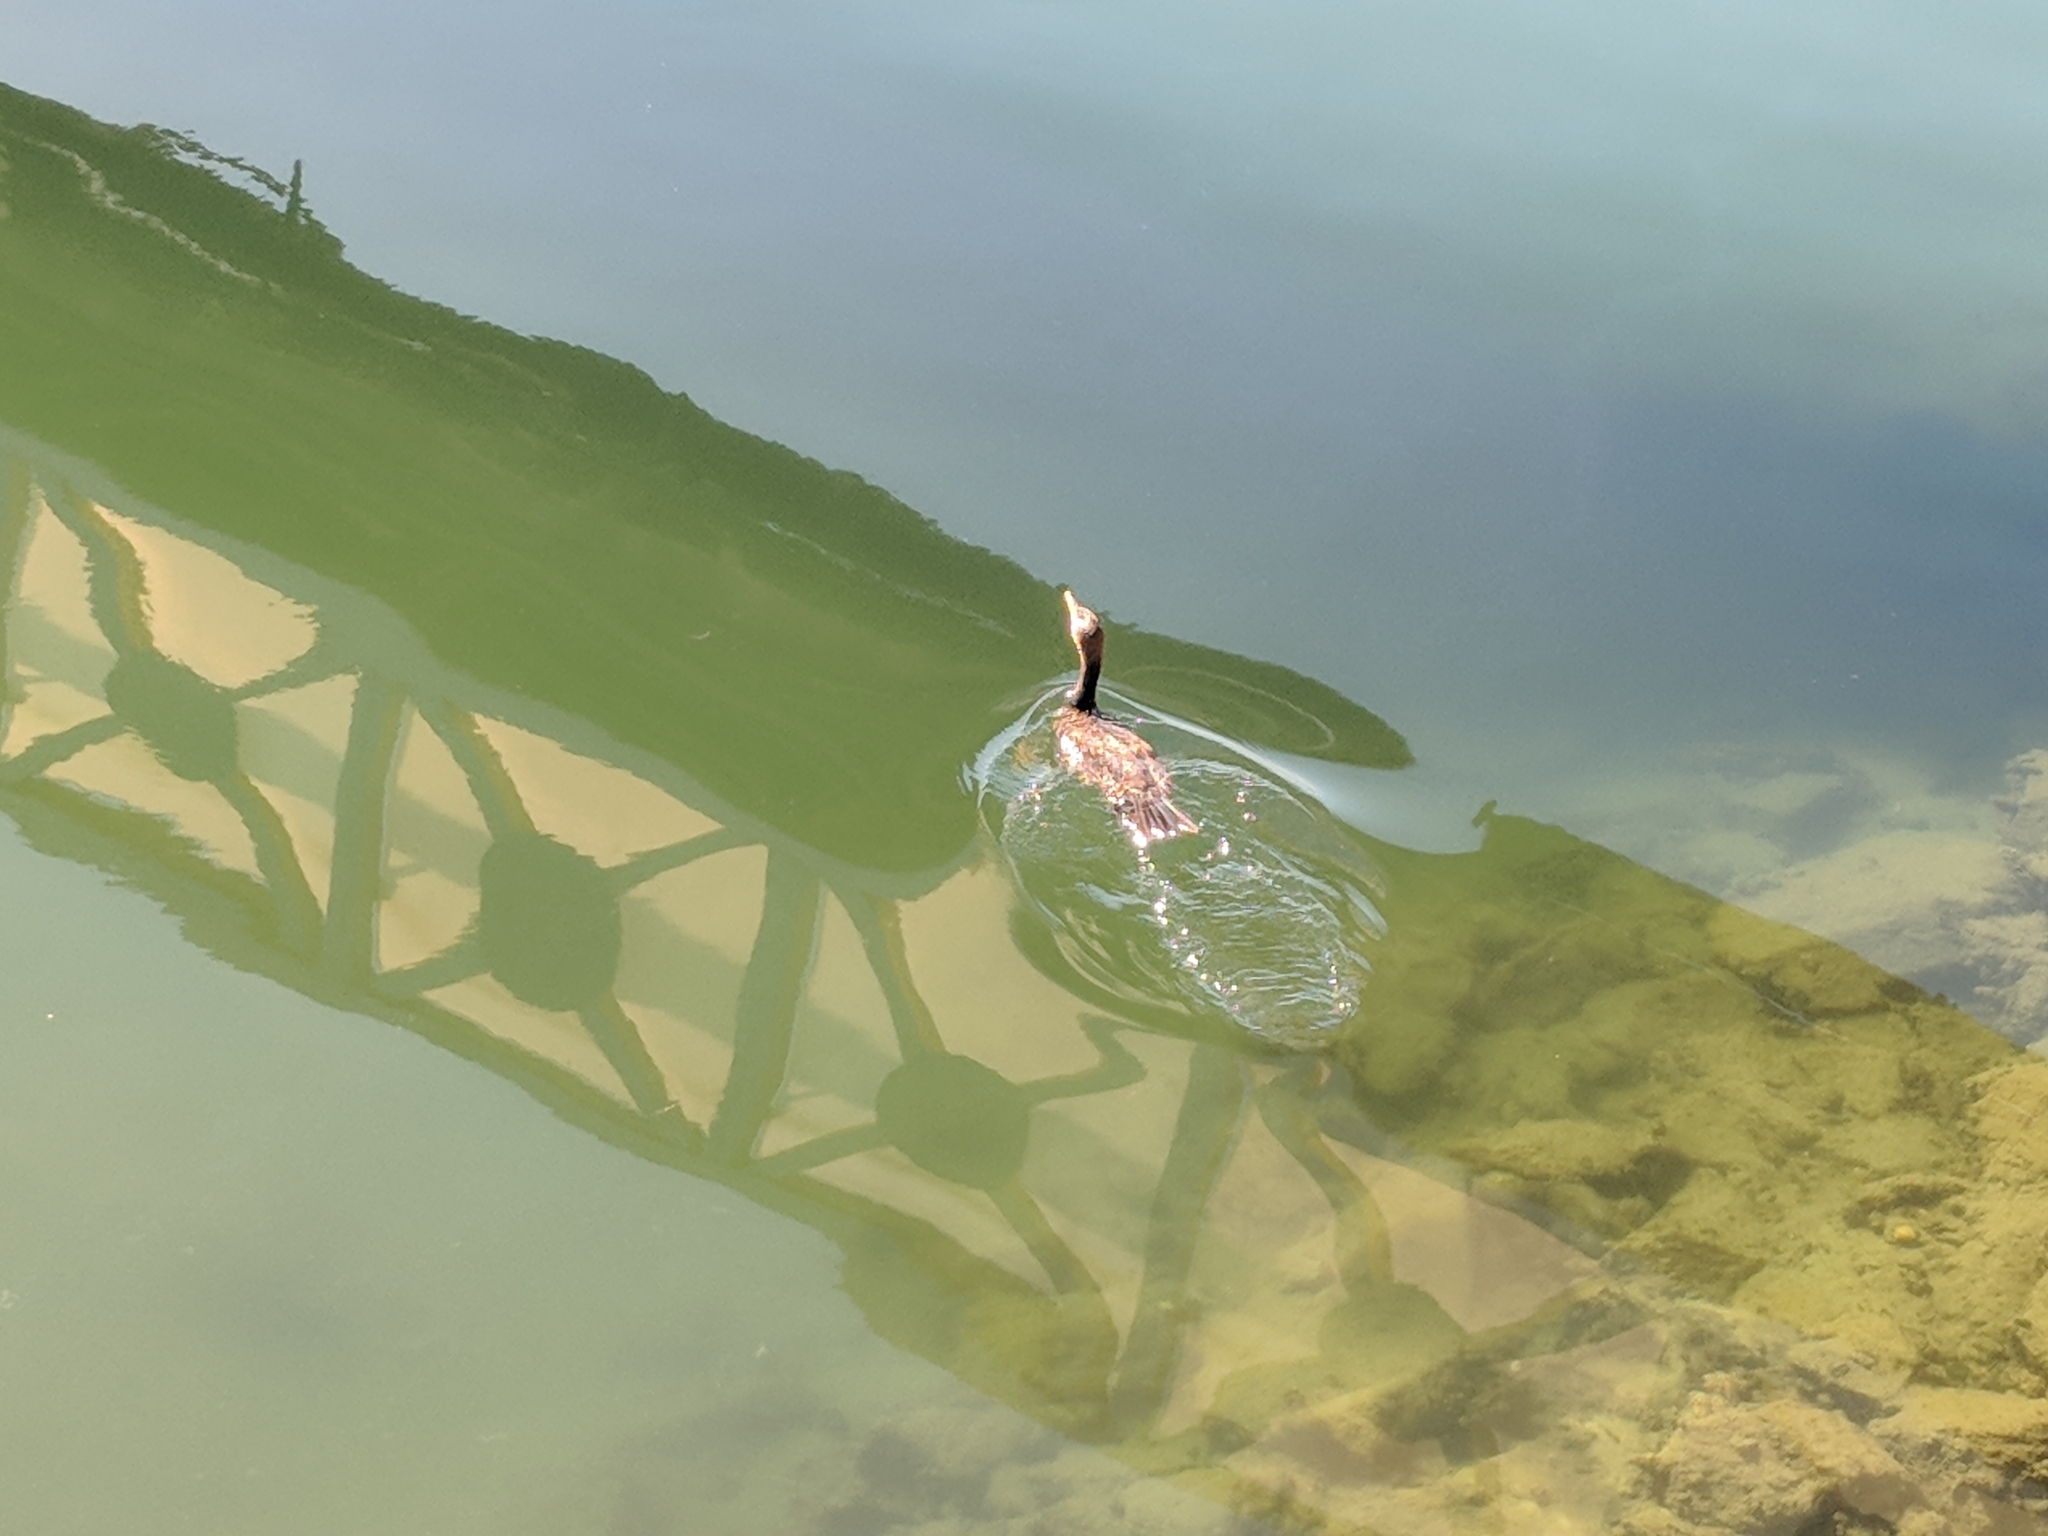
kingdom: Animalia
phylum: Chordata
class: Aves
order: Suliformes
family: Phalacrocoracidae
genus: Phalacrocorax
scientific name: Phalacrocorax auritus
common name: Double-crested cormorant
